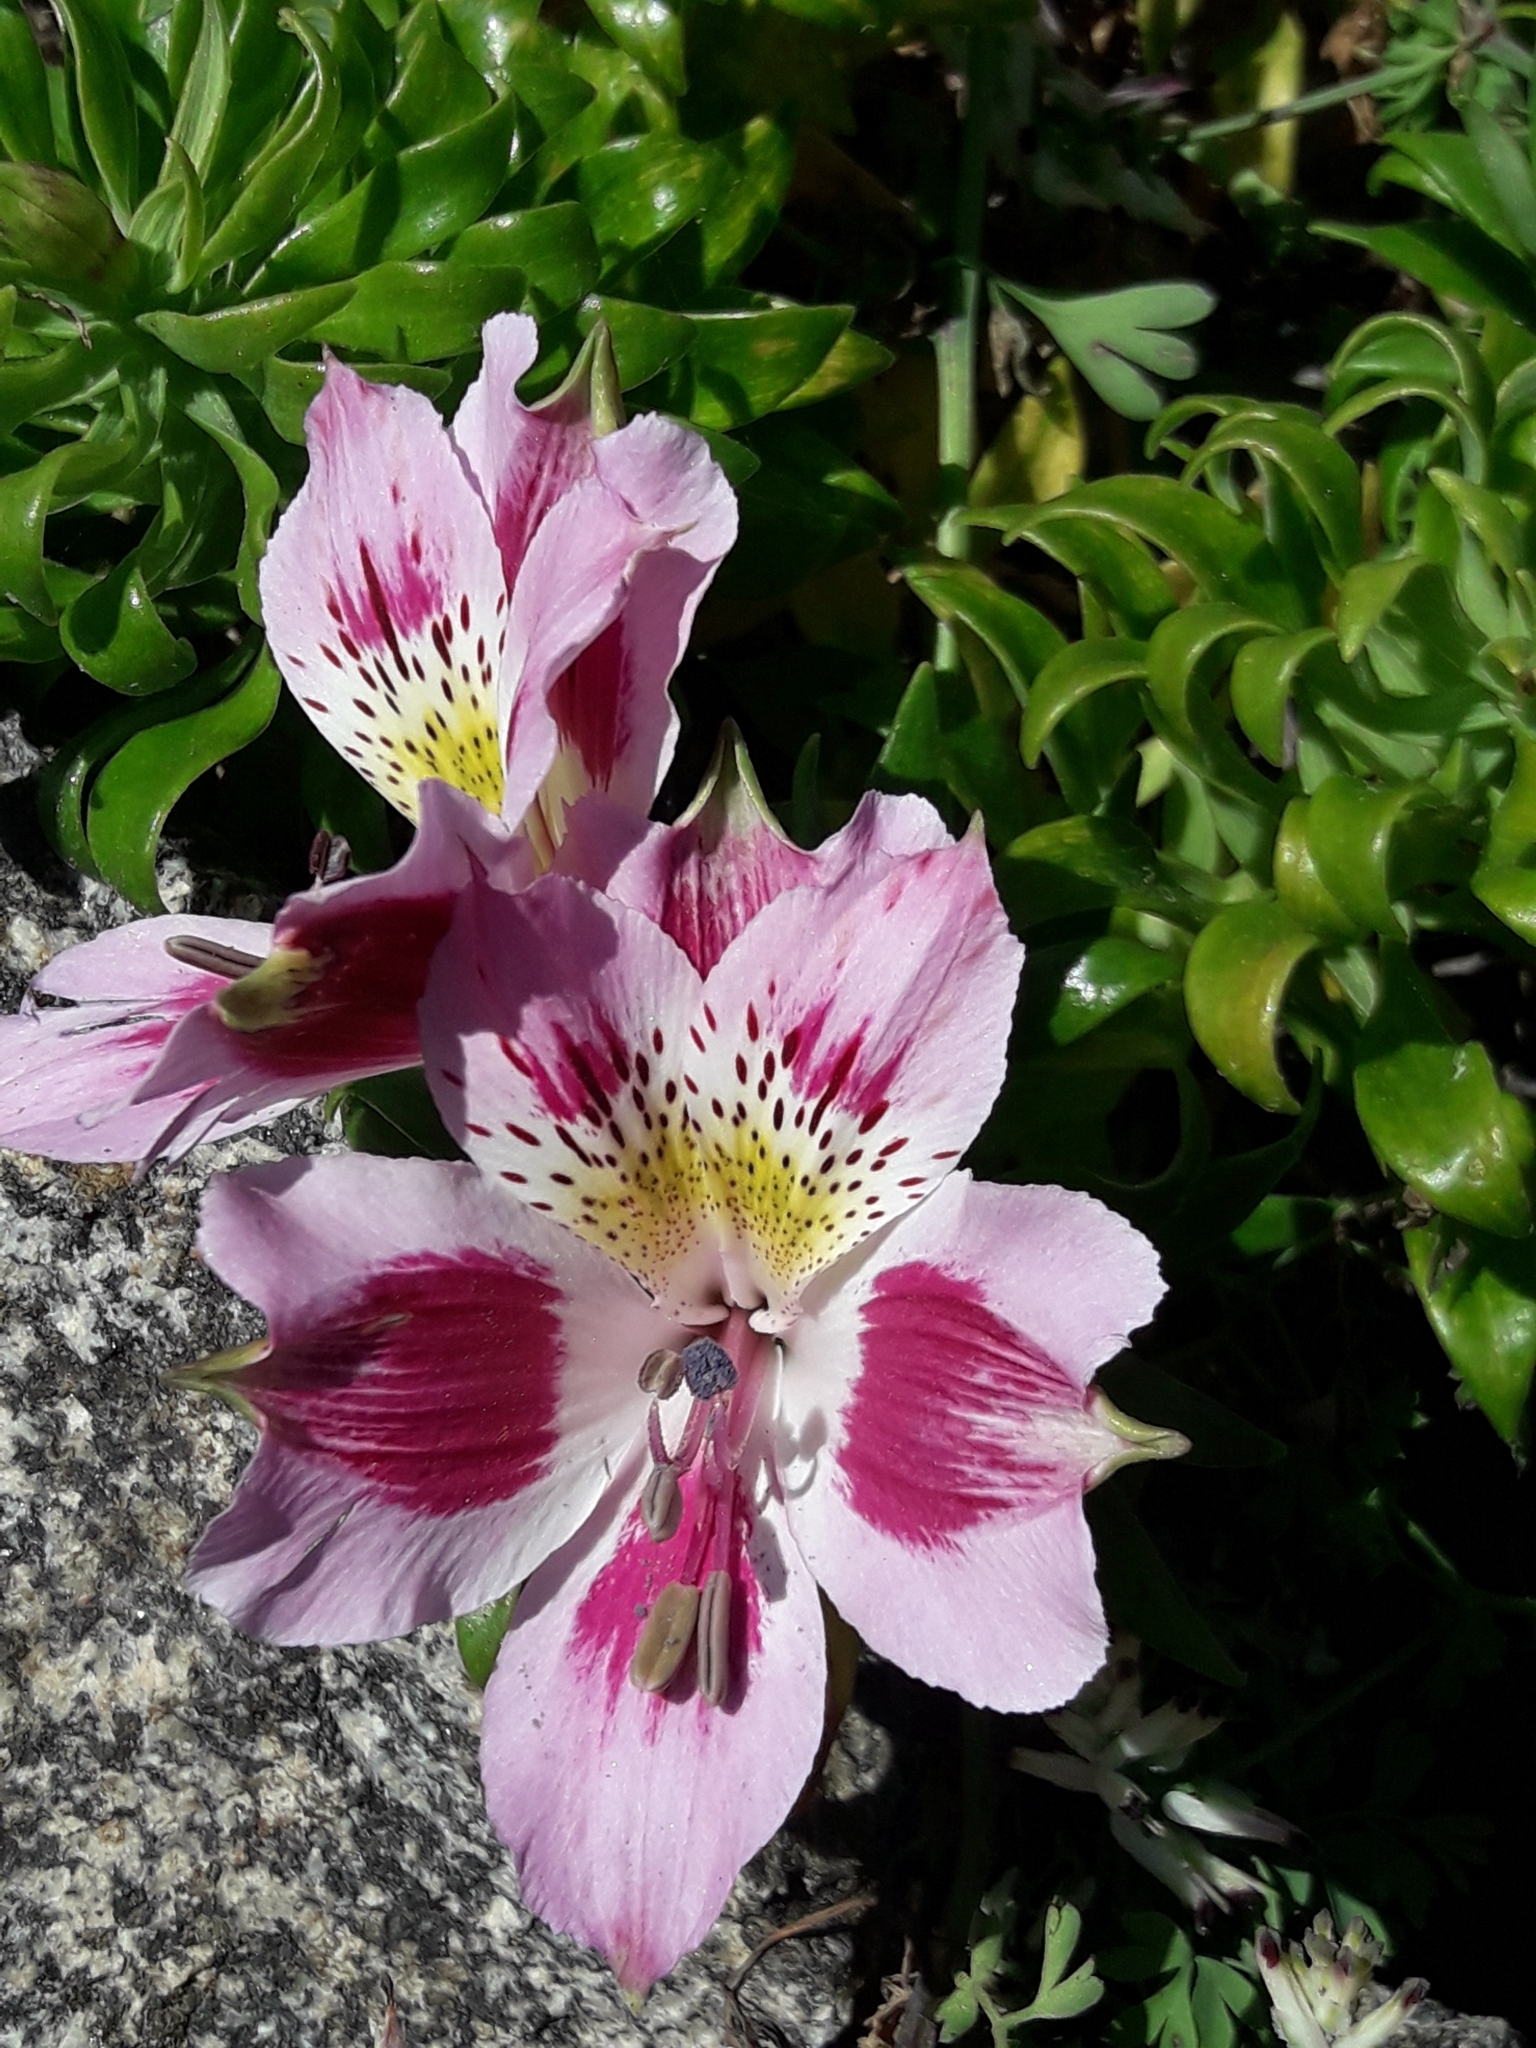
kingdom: Plantae
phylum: Tracheophyta
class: Liliopsida
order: Liliales
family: Alstroemeriaceae
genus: Alstroemeria
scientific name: Alstroemeria pelegrina
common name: Peruvian-lily
